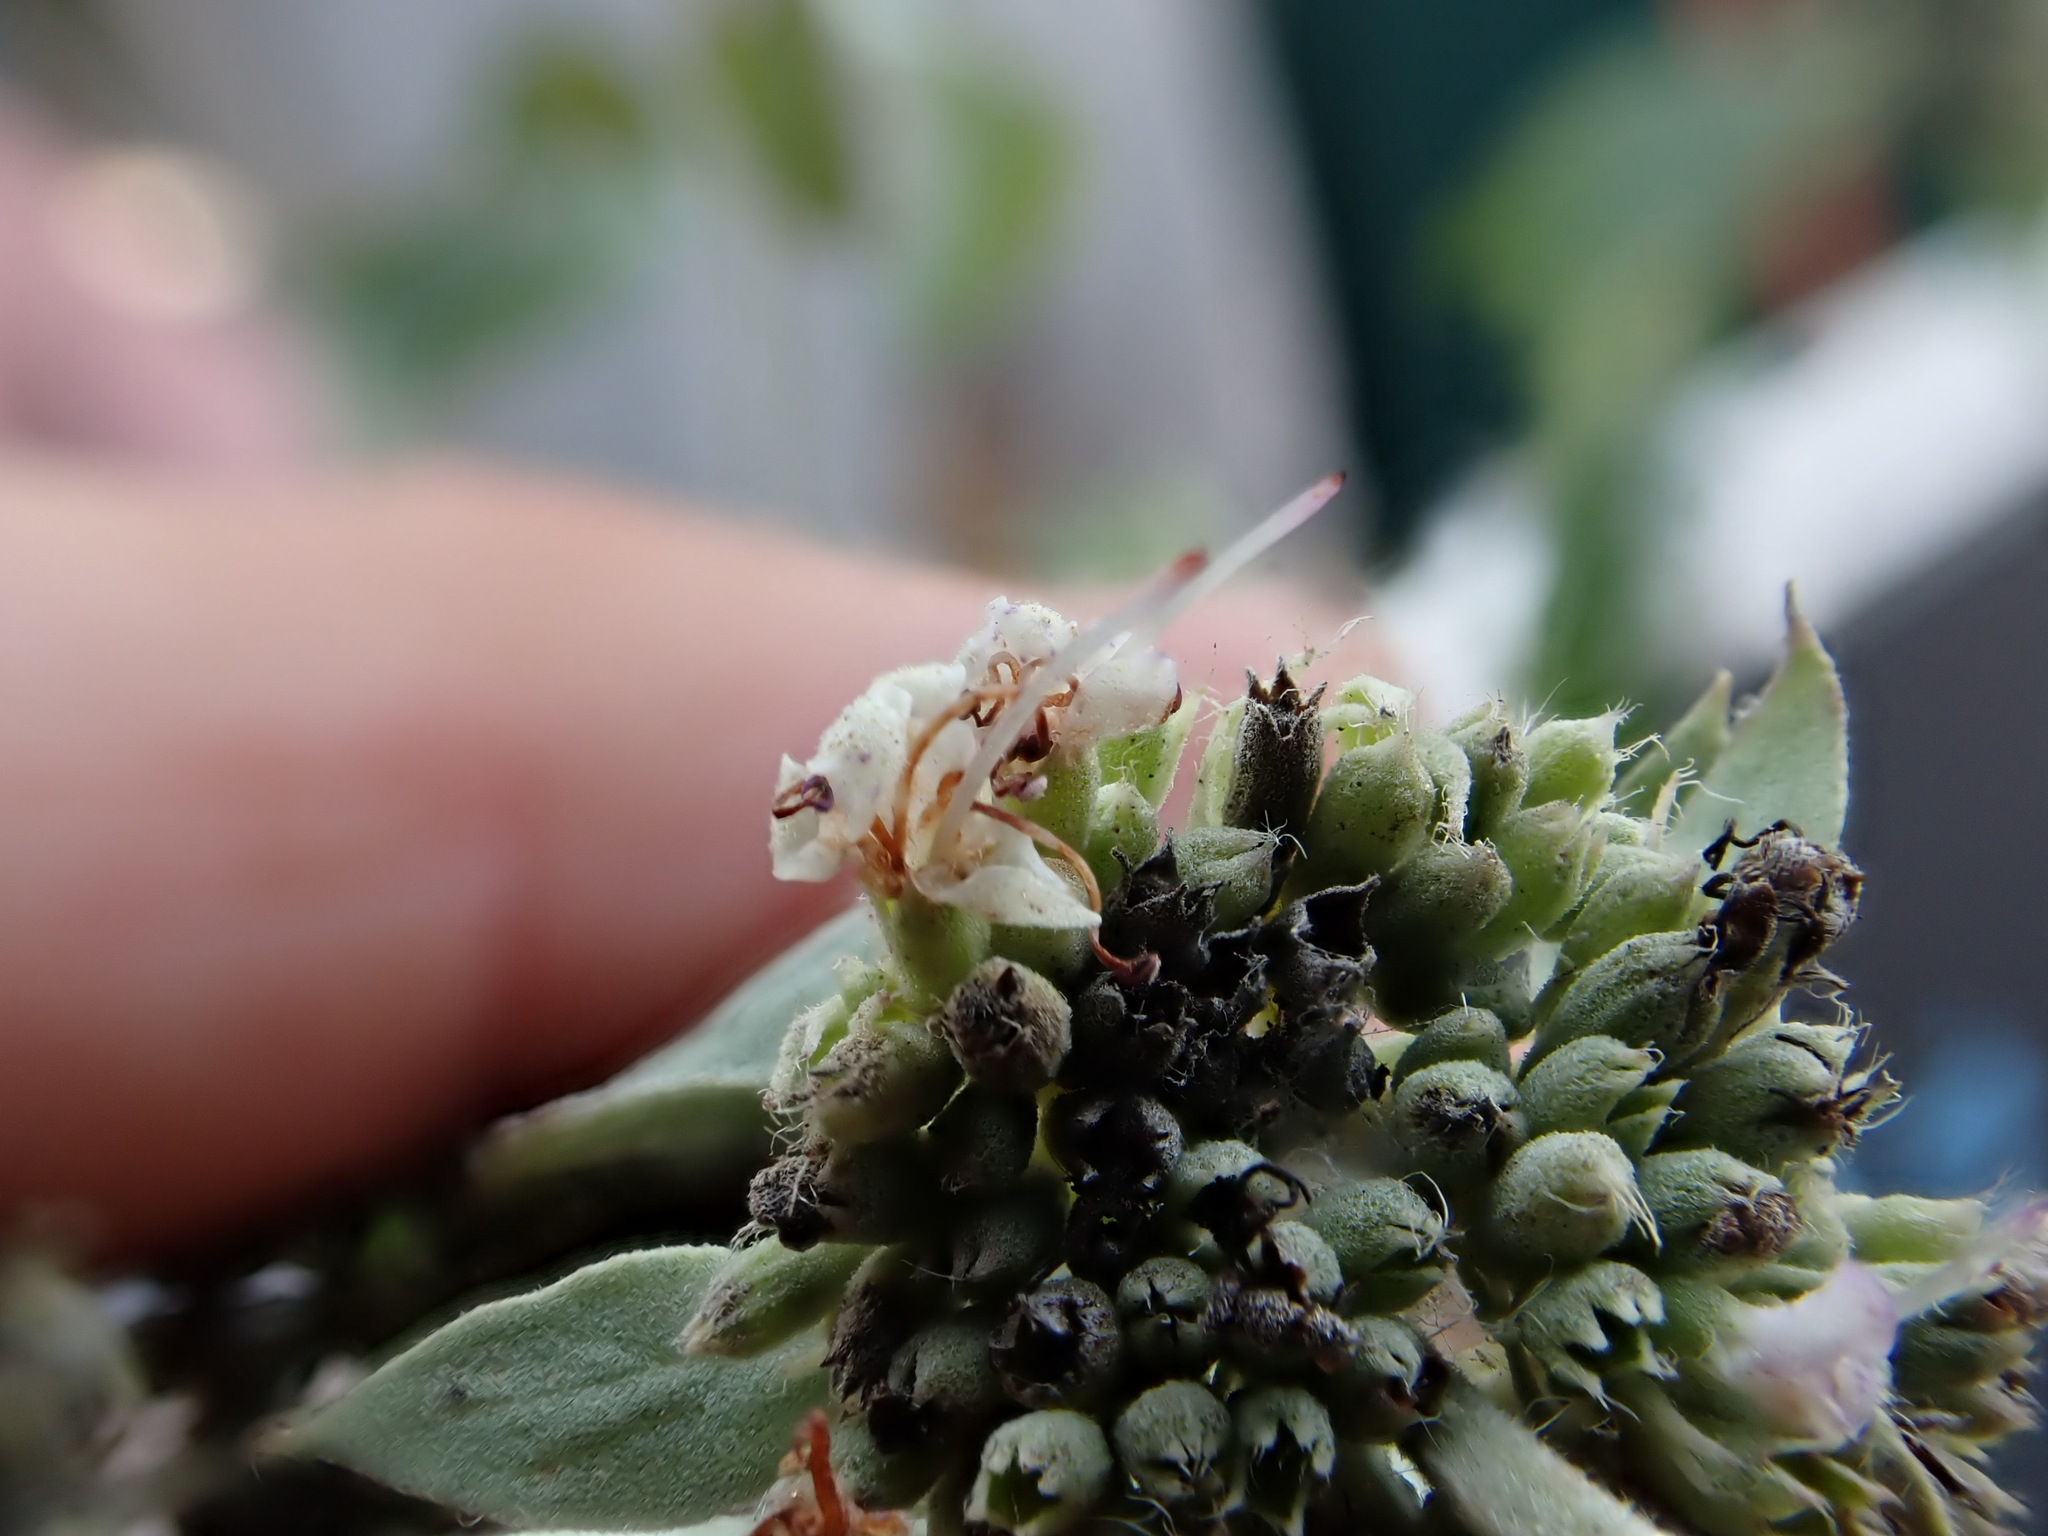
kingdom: Plantae
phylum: Tracheophyta
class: Magnoliopsida
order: Lamiales
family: Lamiaceae
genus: Pycnanthemum
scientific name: Pycnanthemum muticum
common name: Blunt mountain-mint
